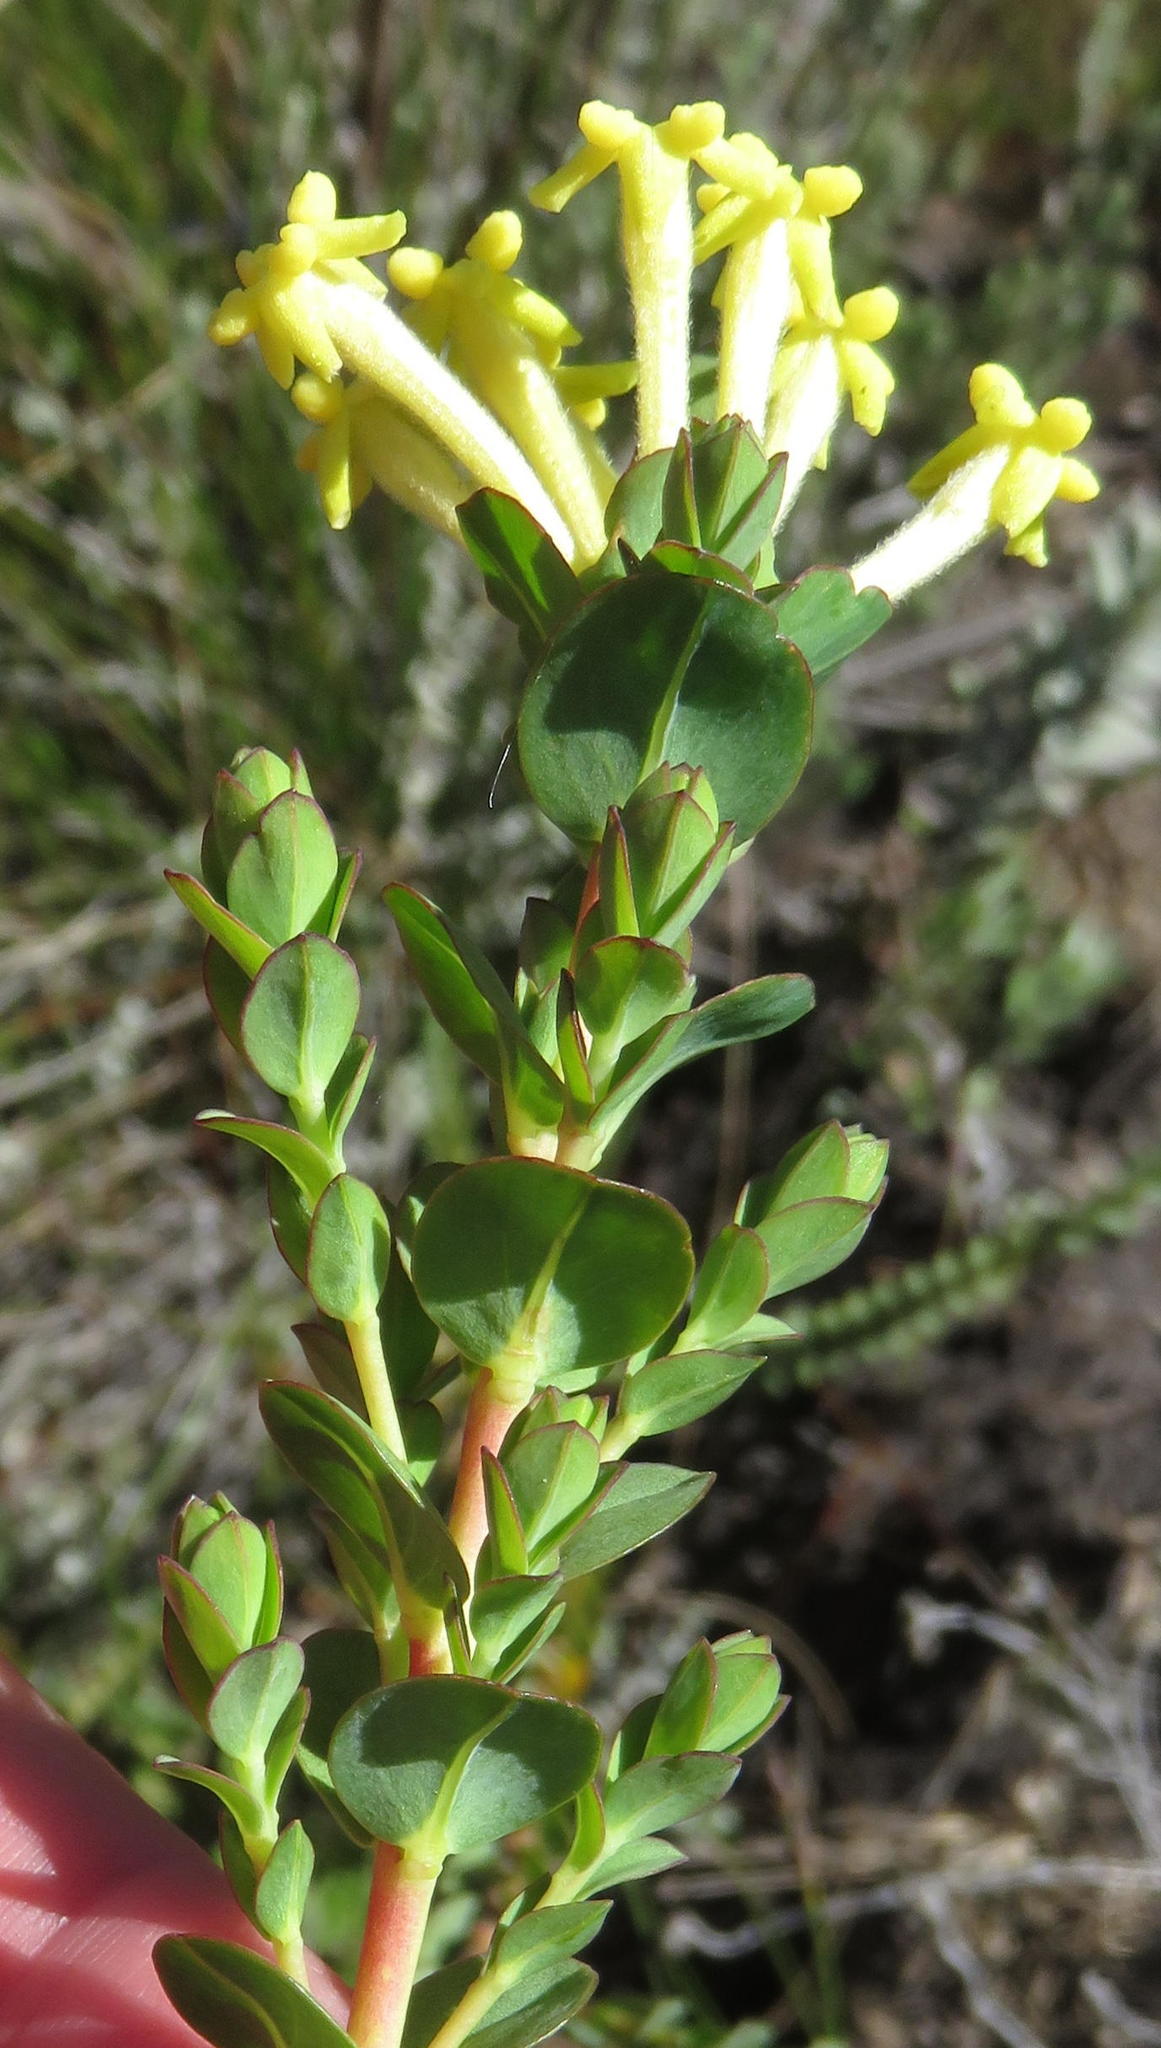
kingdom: Plantae
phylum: Tracheophyta
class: Magnoliopsida
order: Malvales
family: Thymelaeaceae
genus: Gnidia
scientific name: Gnidia oppositifolia
